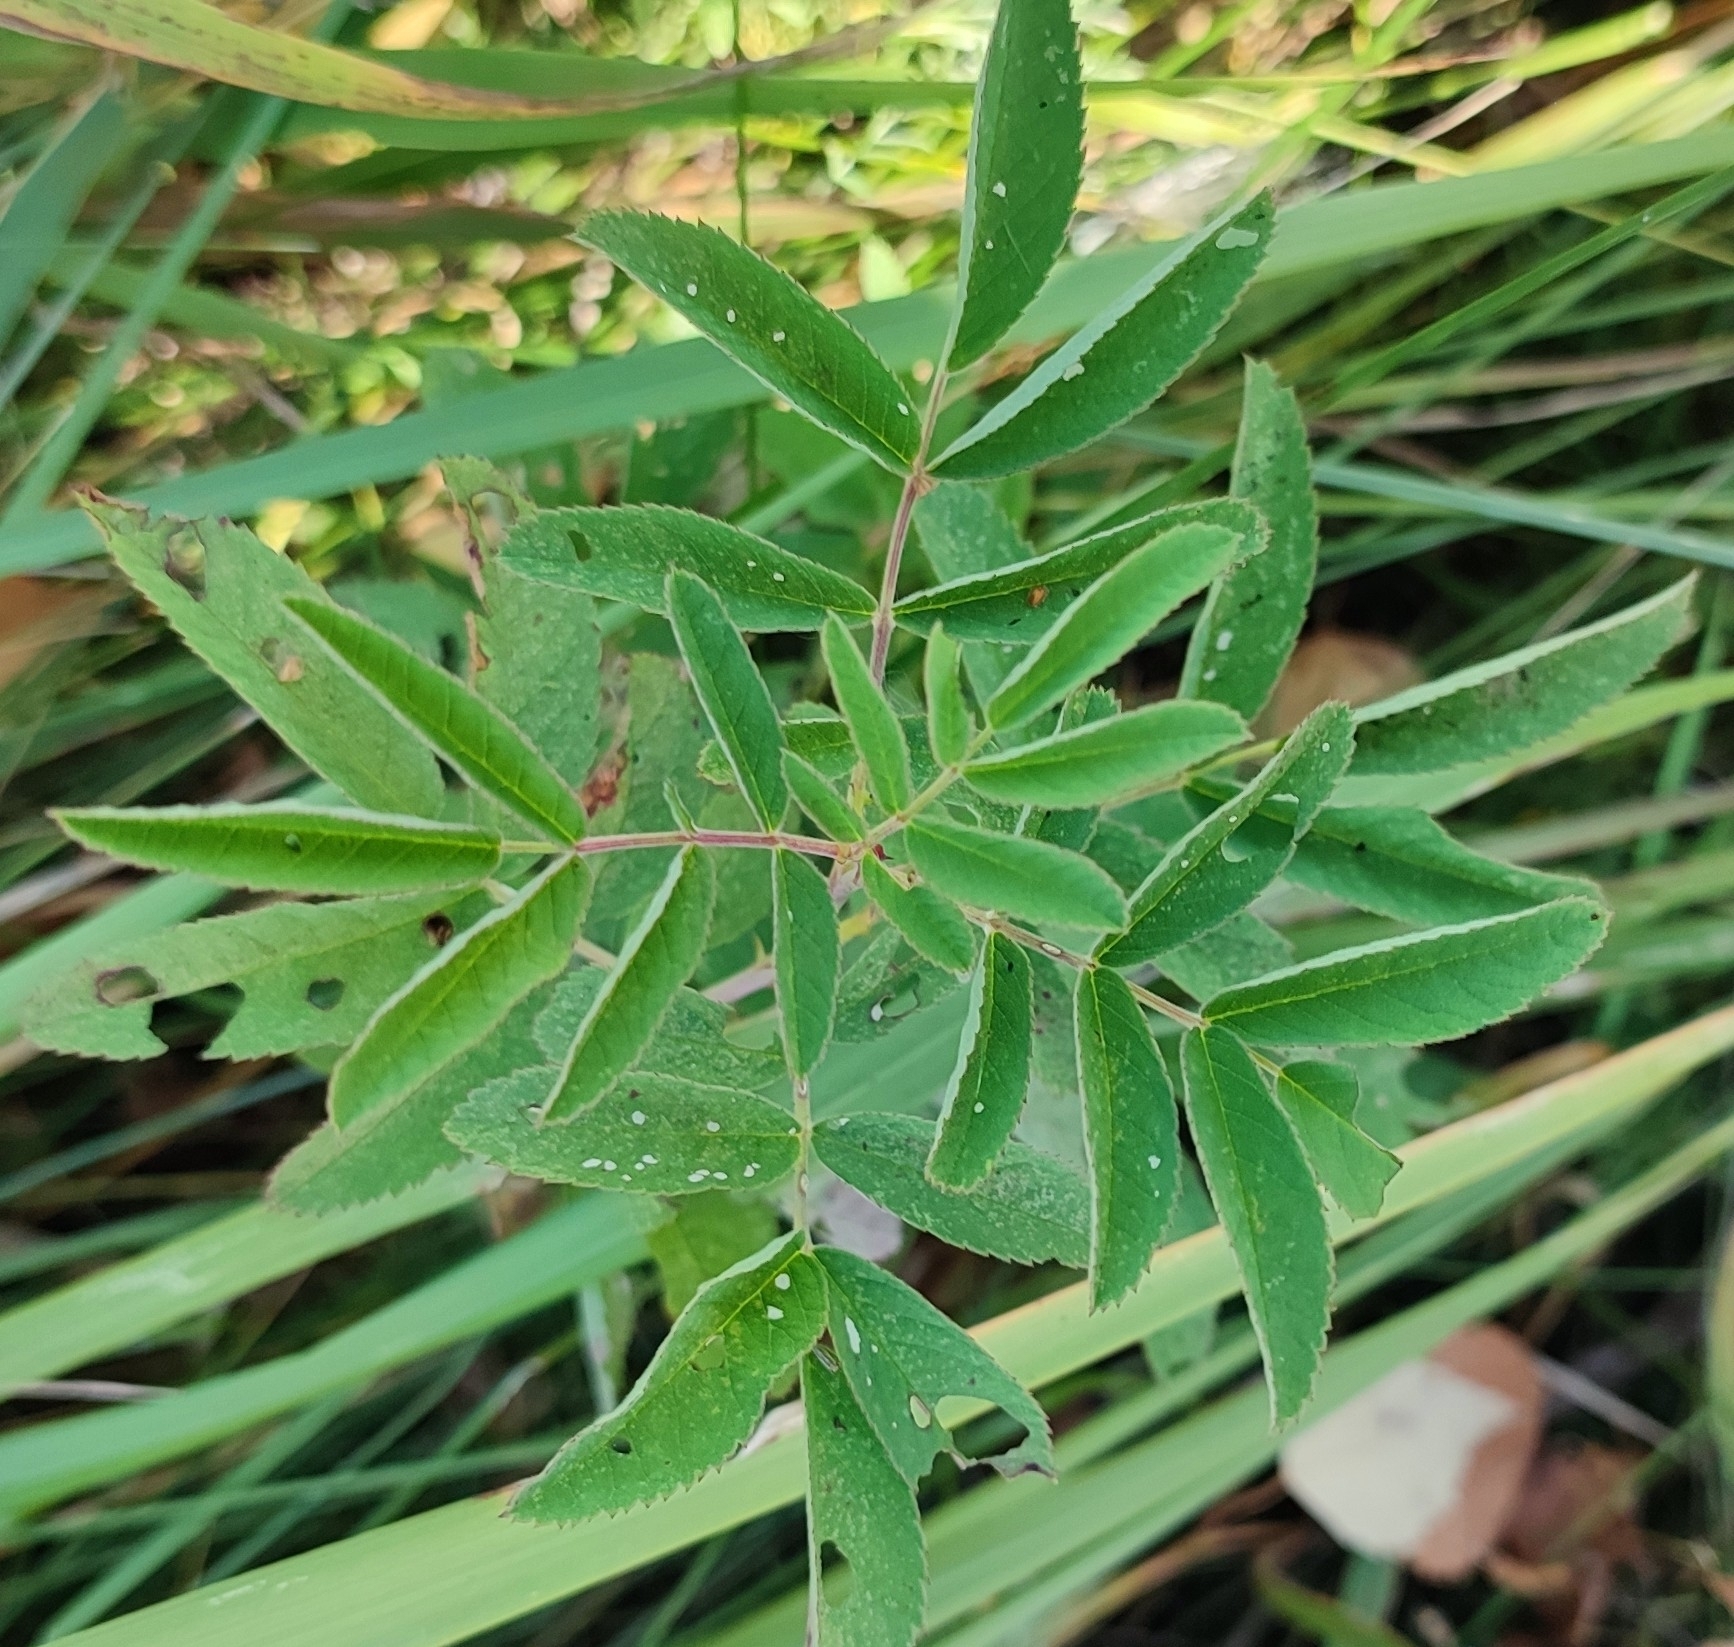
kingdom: Plantae
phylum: Tracheophyta
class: Magnoliopsida
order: Rosales
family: Rosaceae
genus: Rosa
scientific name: Rosa majalis
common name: Cinnamon rose
